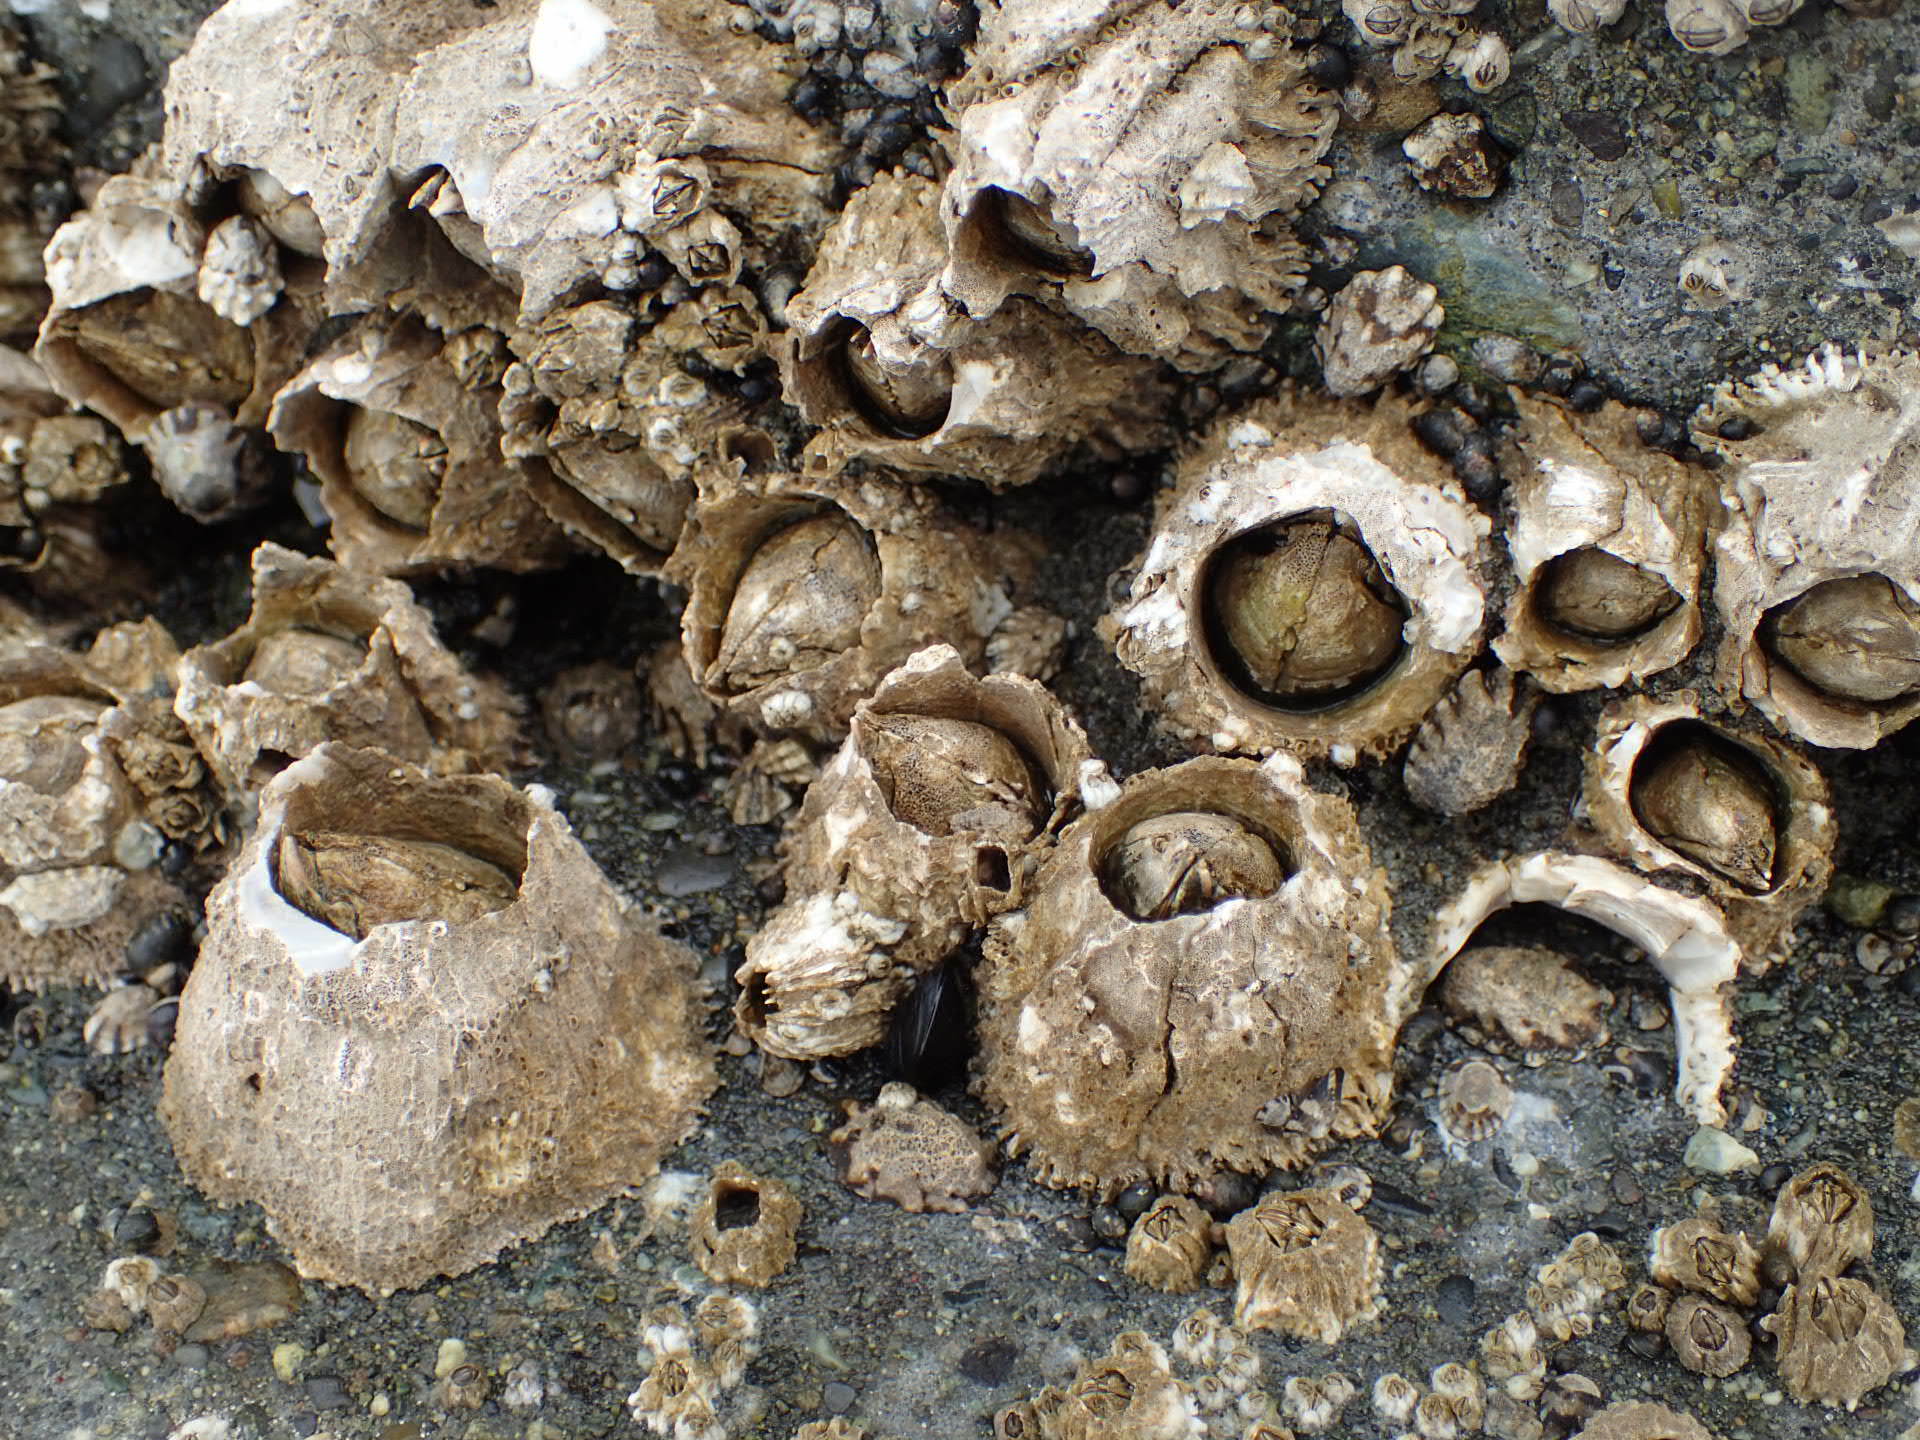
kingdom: Animalia
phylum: Arthropoda
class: Maxillopoda
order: Sessilia
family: Archaeobalanidae
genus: Semibalanus
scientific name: Semibalanus cariosus
